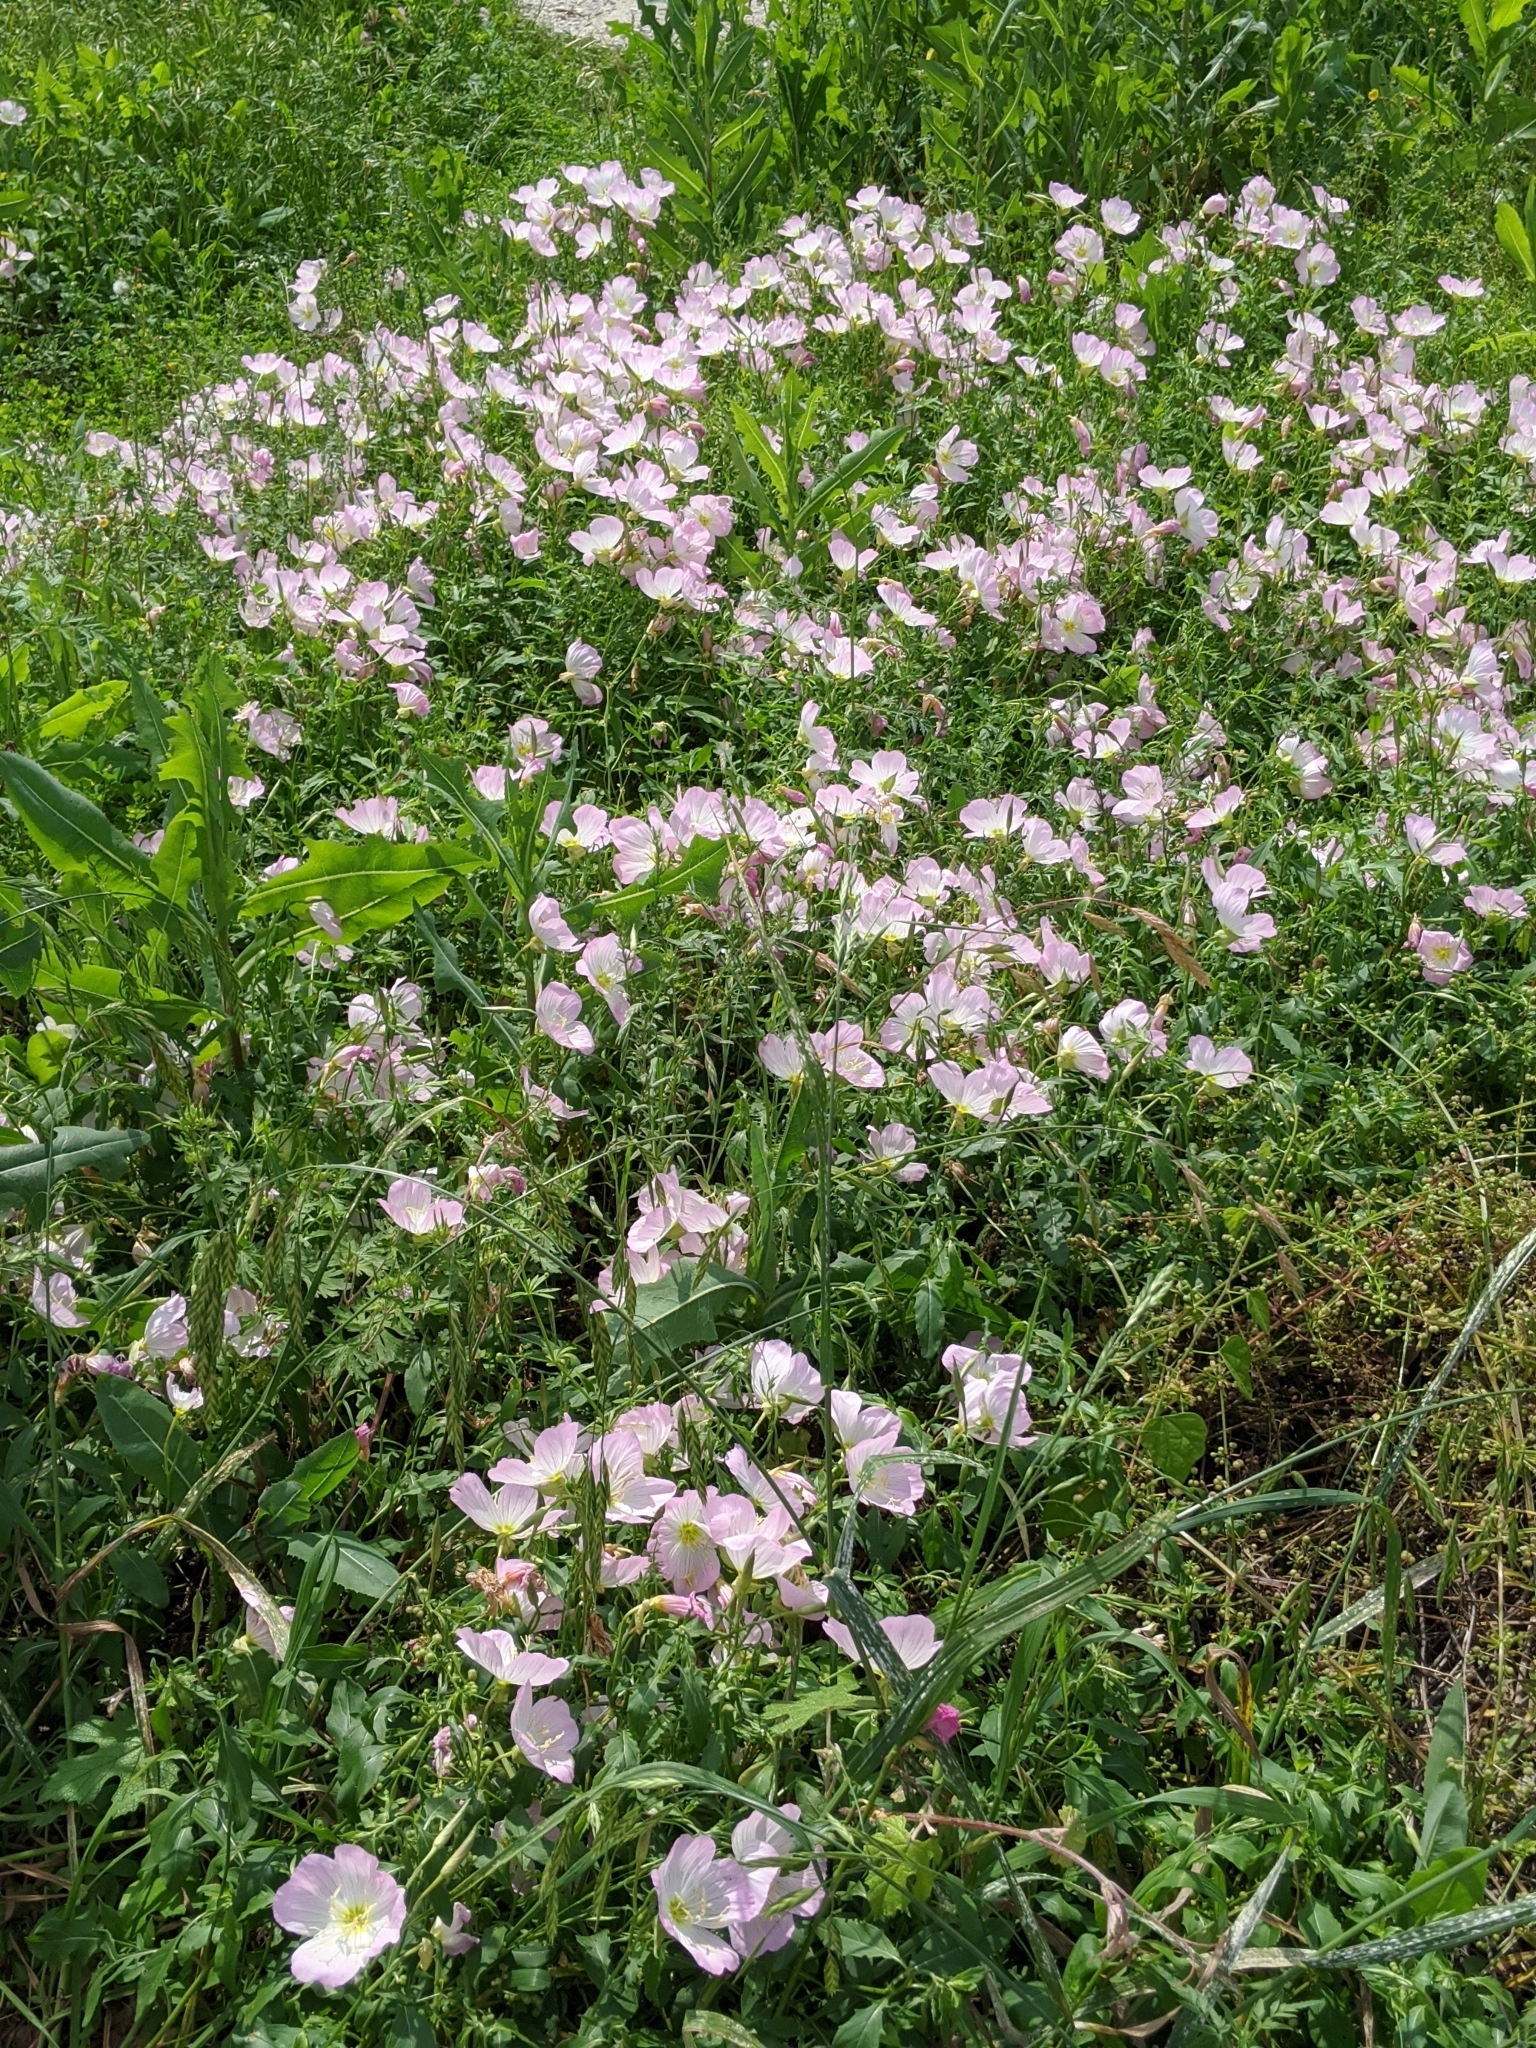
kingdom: Plantae
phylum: Tracheophyta
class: Magnoliopsida
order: Myrtales
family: Onagraceae
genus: Oenothera
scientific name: Oenothera speciosa
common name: White evening-primrose
